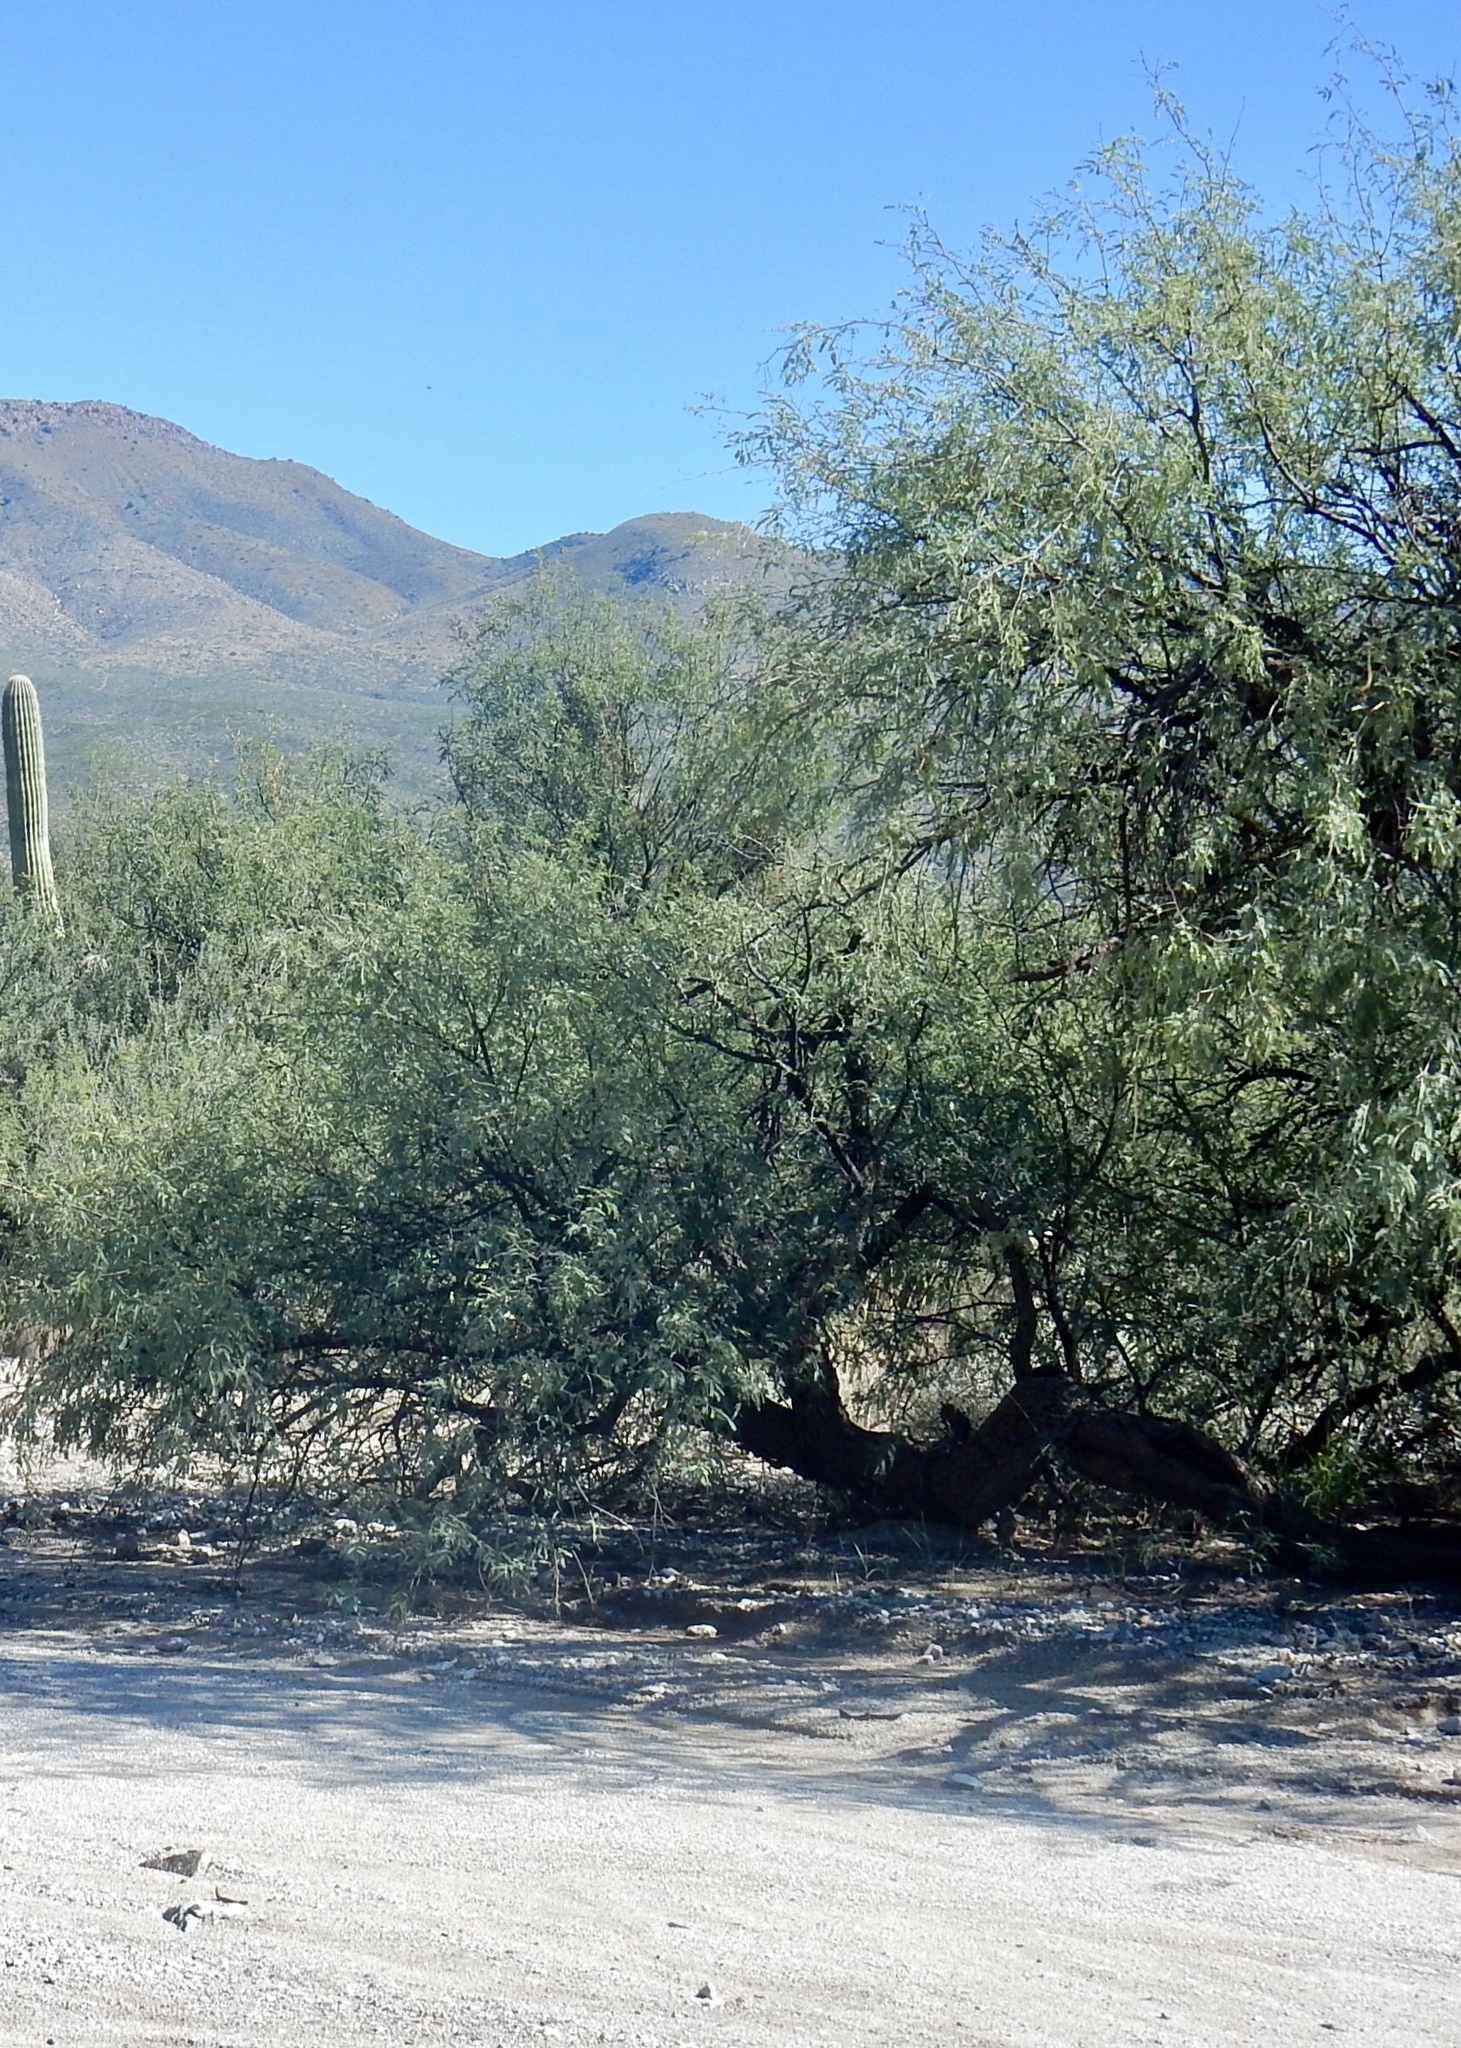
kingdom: Plantae
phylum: Tracheophyta
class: Magnoliopsida
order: Fabales
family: Fabaceae
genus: Prosopis
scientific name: Prosopis velutina
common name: Velvet mesquite
